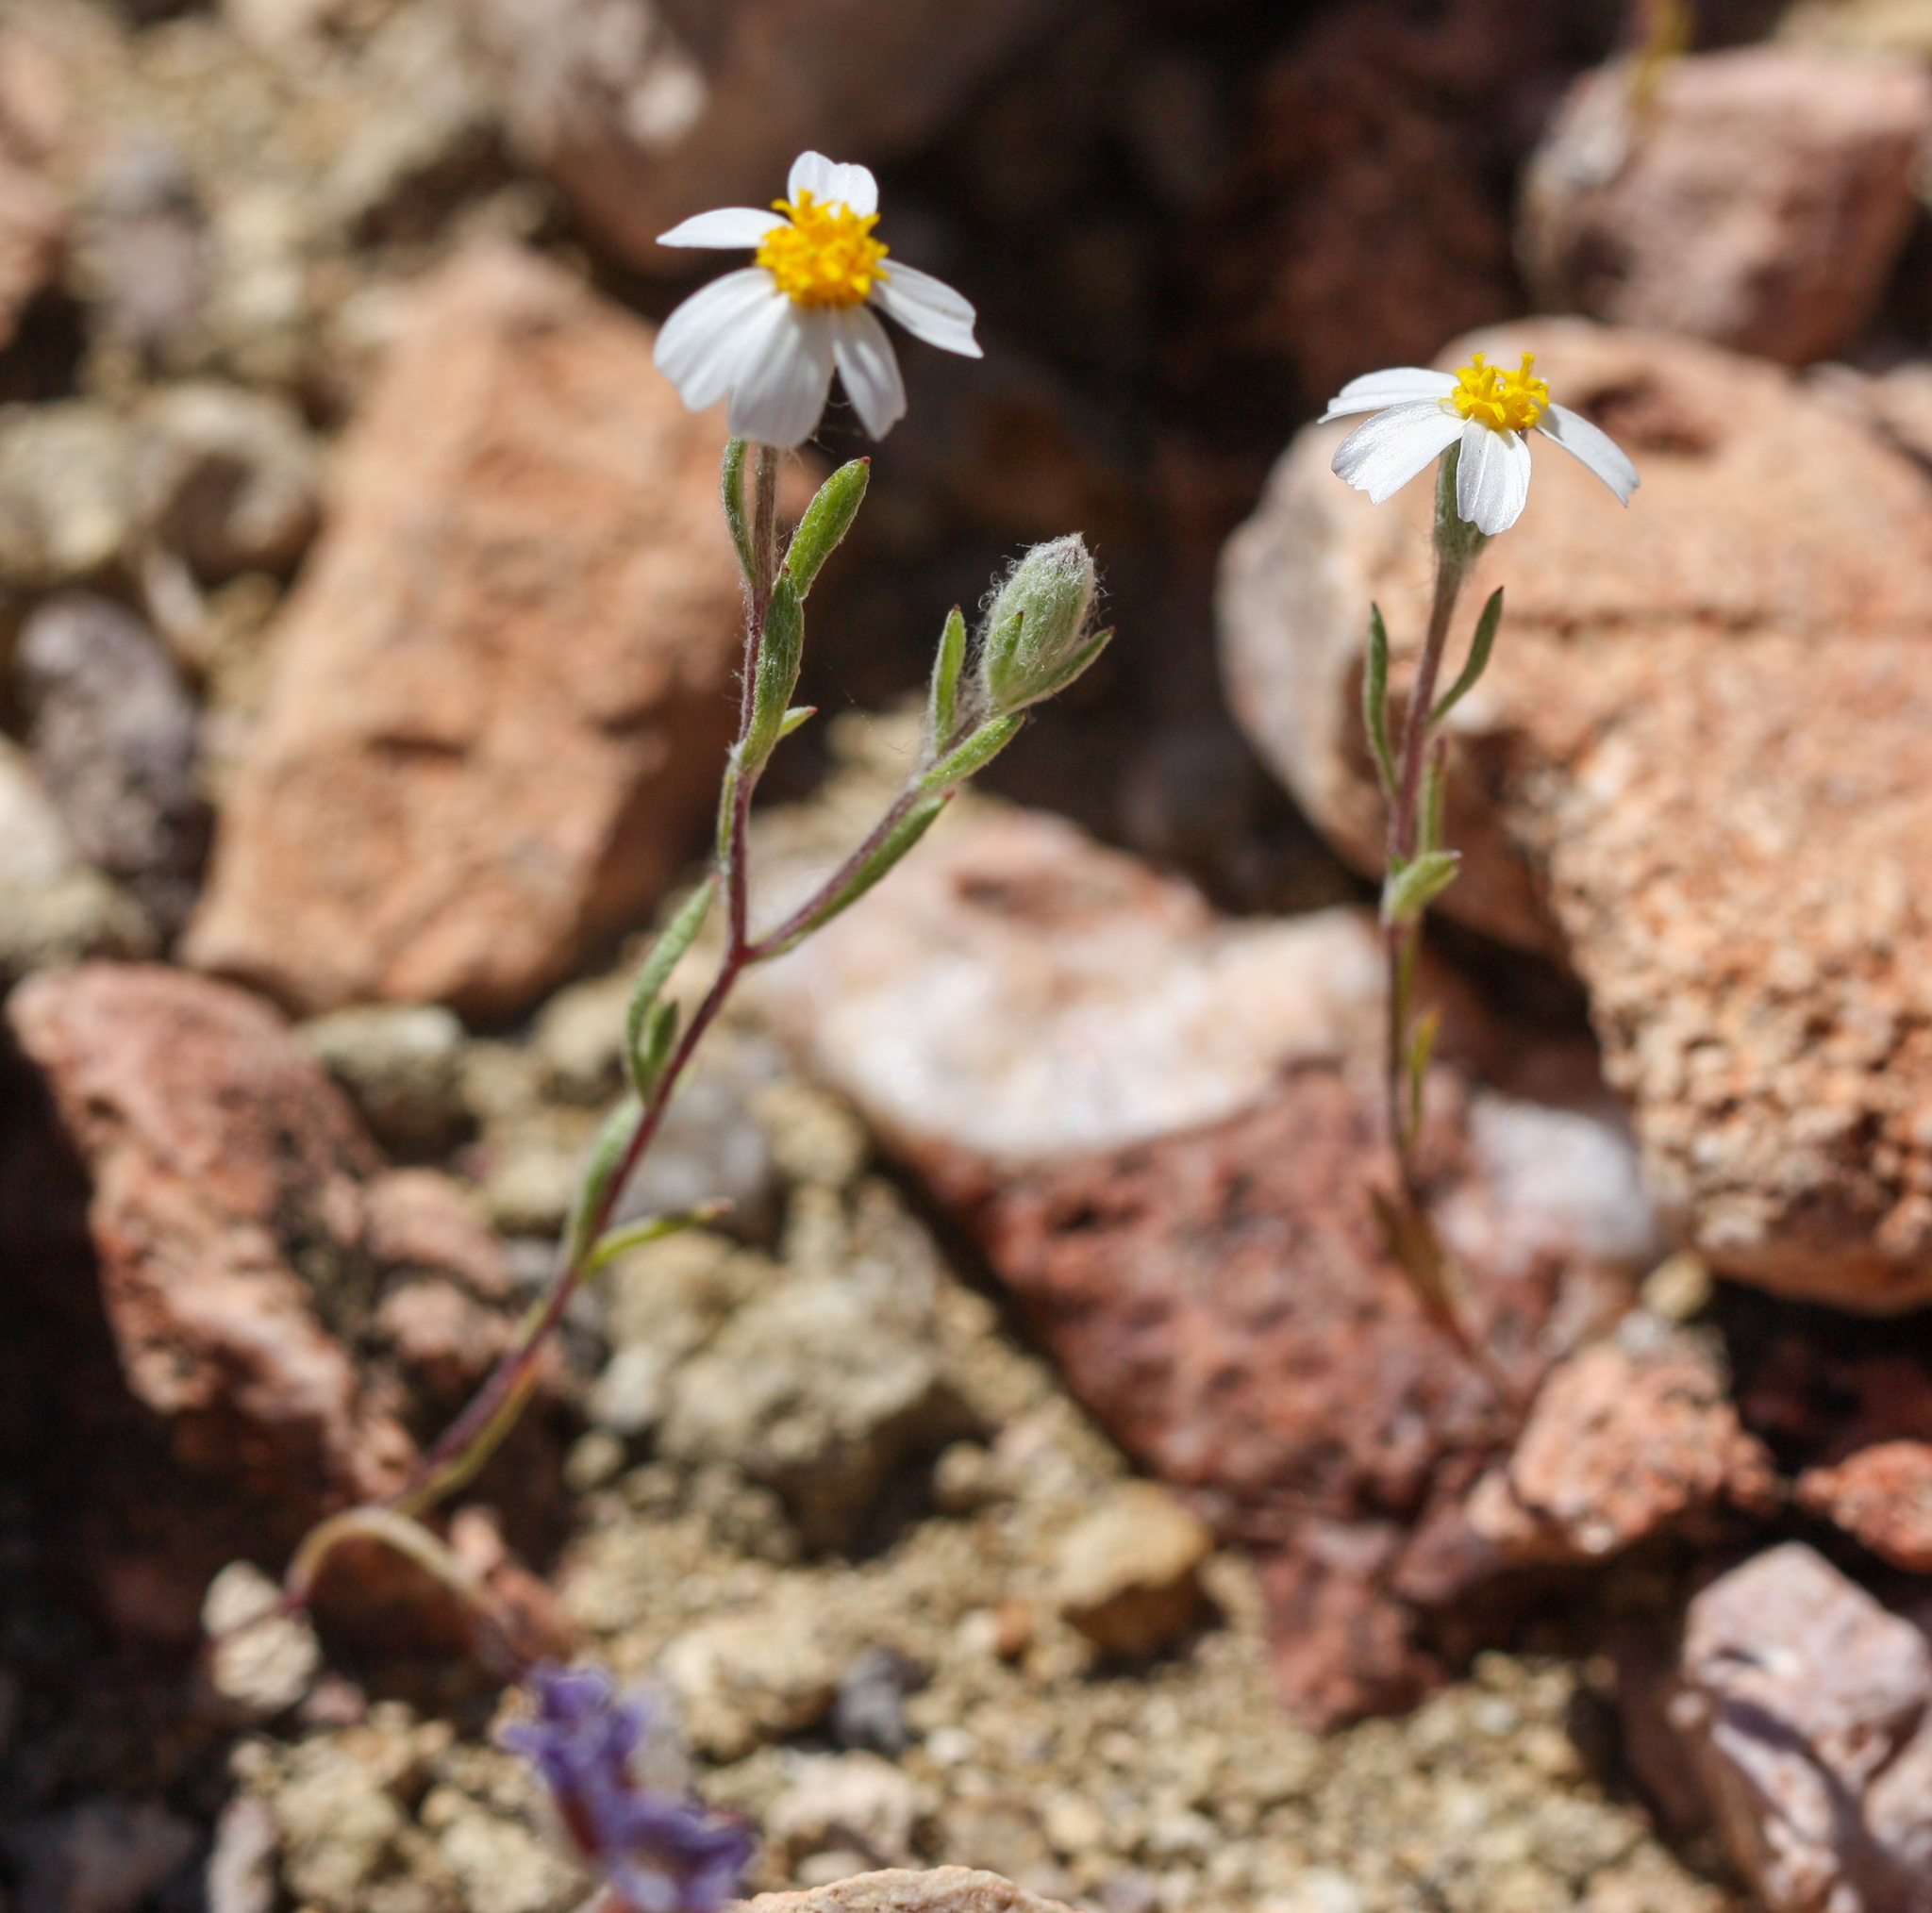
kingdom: Plantae
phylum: Tracheophyta
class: Magnoliopsida
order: Asterales
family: Asteraceae
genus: Eriophyllum
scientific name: Eriophyllum lanosum
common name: White easter-bonnets
